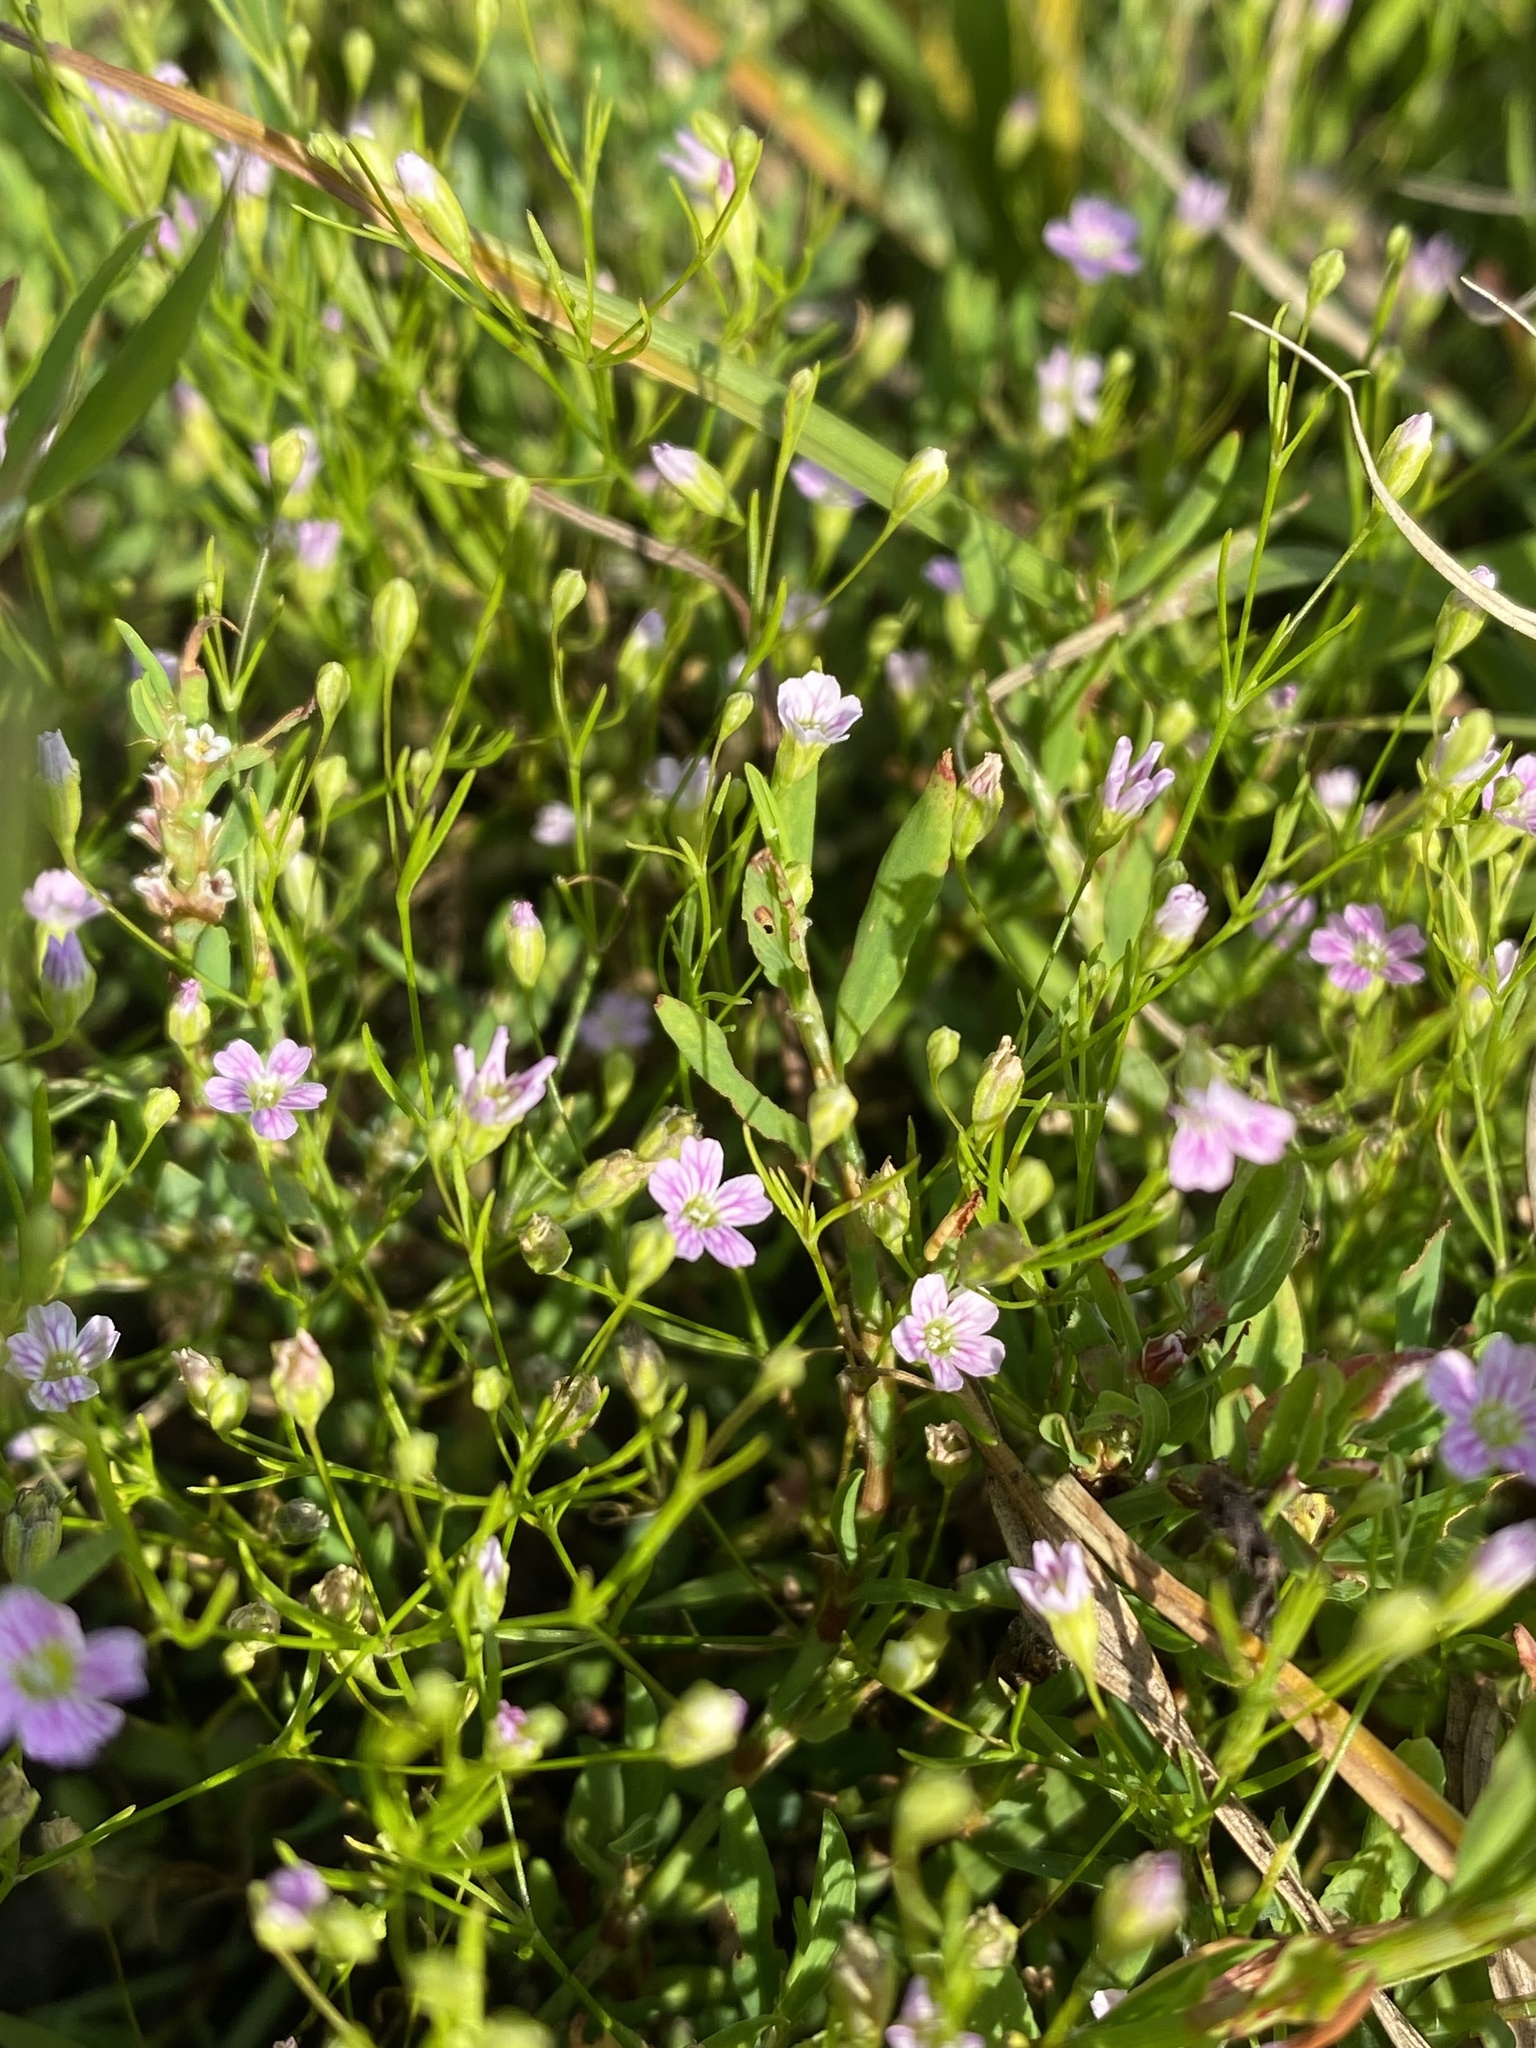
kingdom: Plantae
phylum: Tracheophyta
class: Magnoliopsida
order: Caryophyllales
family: Caryophyllaceae
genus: Psammophiliella
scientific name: Psammophiliella muralis
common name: Cushion baby's-breath
